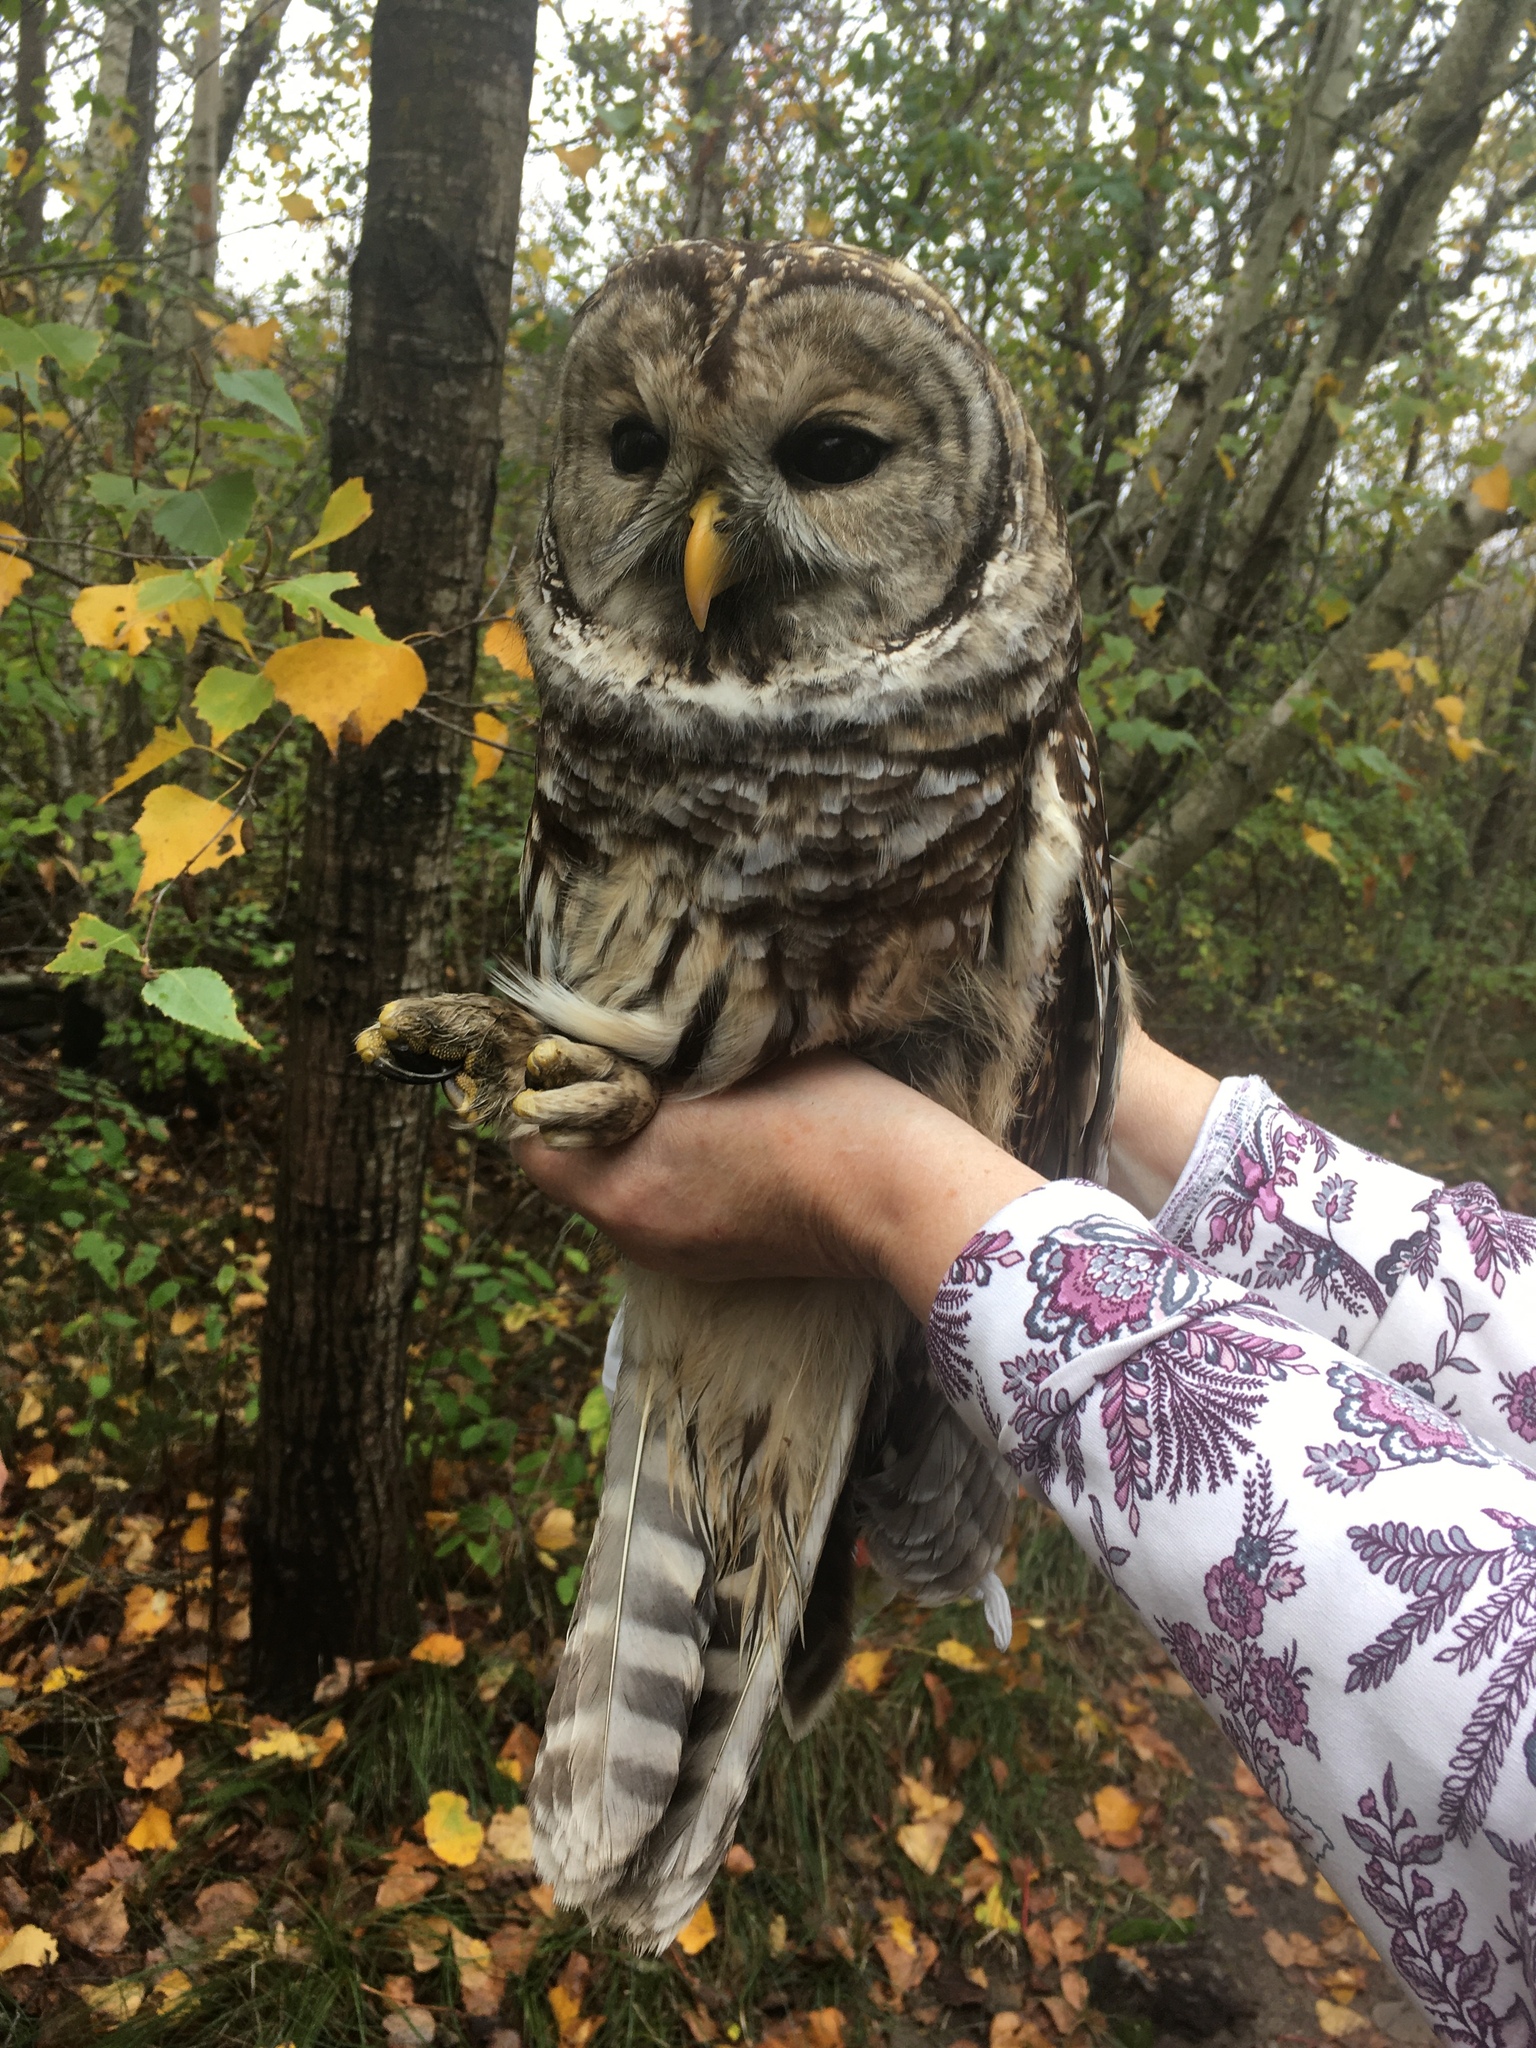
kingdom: Animalia
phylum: Chordata
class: Aves
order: Strigiformes
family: Strigidae
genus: Strix
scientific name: Strix varia
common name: Barred owl
